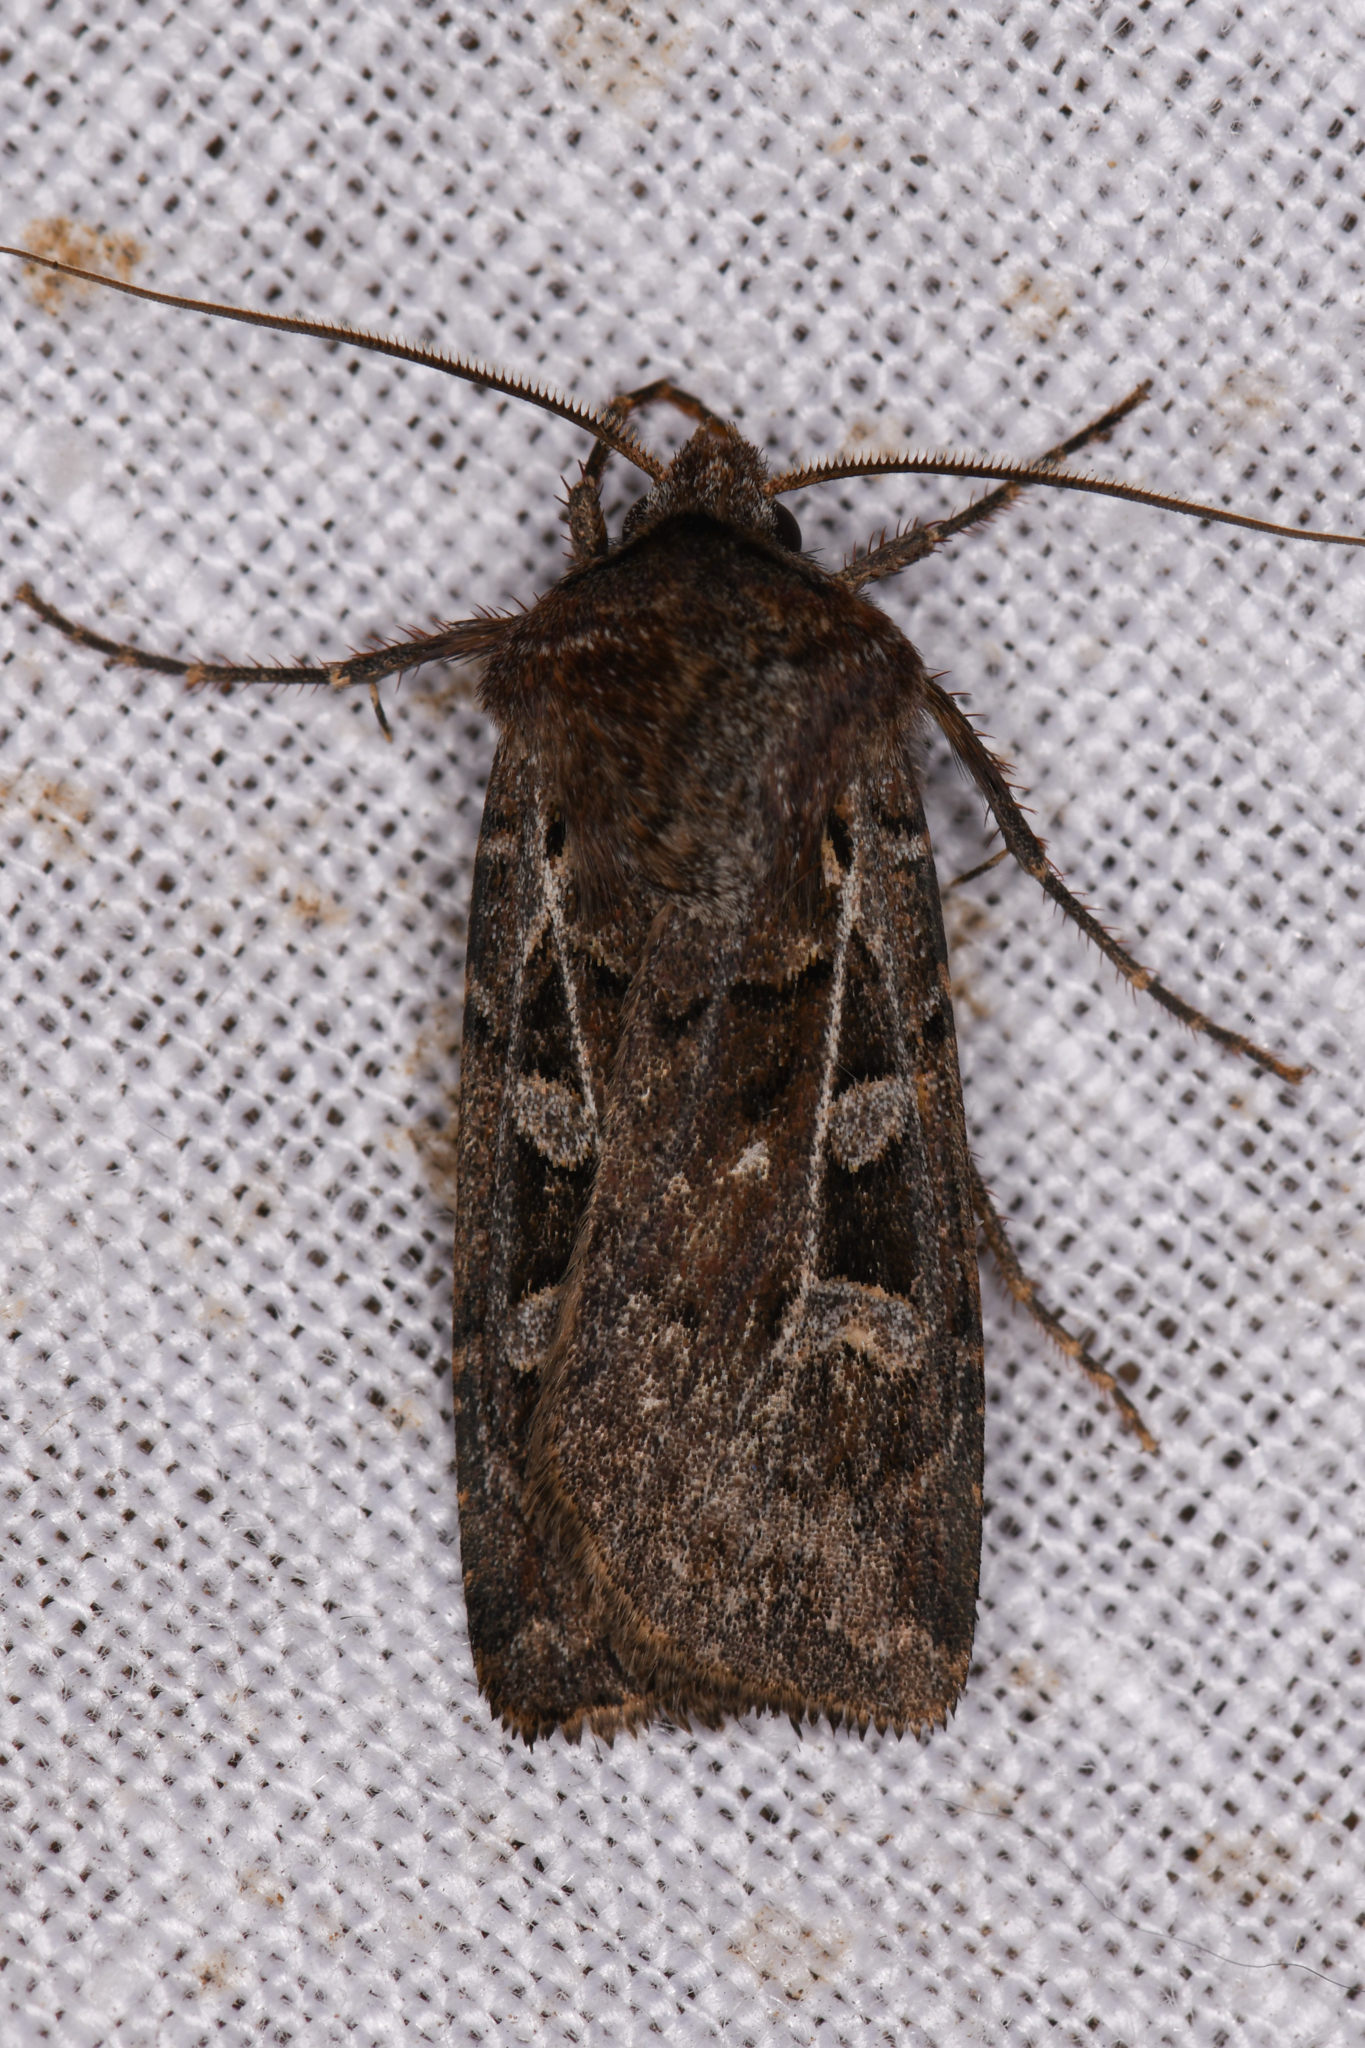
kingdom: Animalia
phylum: Arthropoda
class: Insecta
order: Lepidoptera
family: Noctuidae
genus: Euxoa
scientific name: Euxoa divergens
